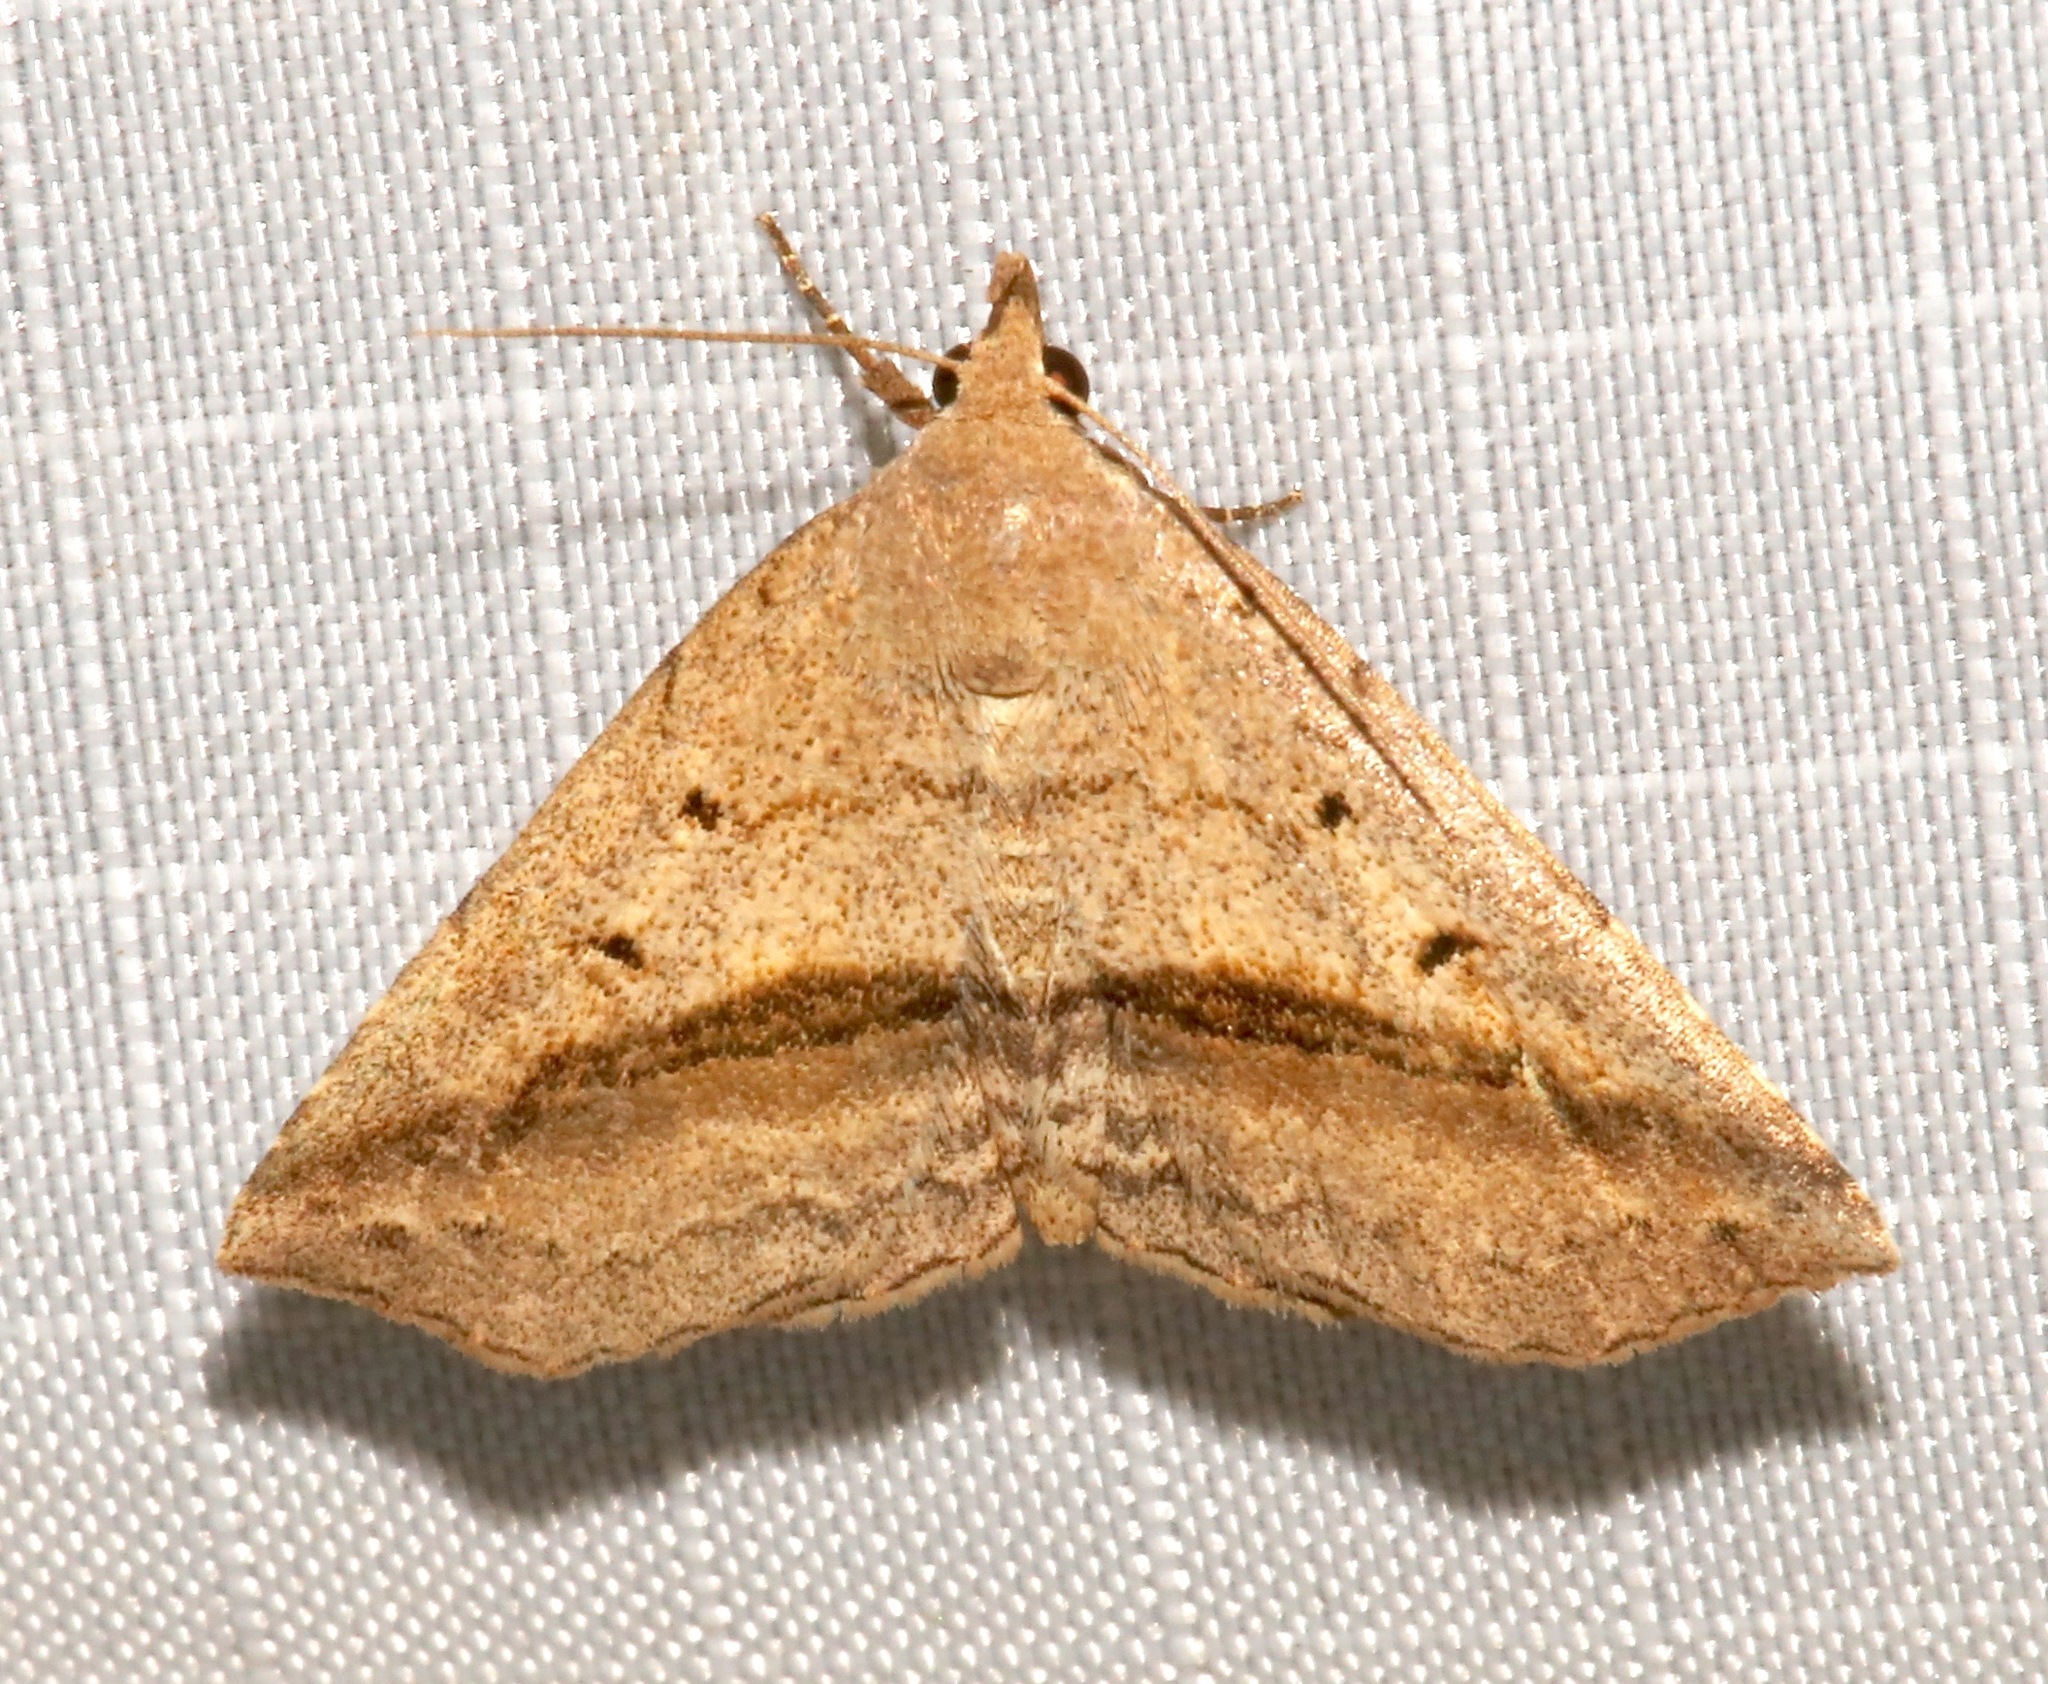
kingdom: Animalia
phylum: Arthropoda
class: Insecta
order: Lepidoptera
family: Erebidae
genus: Spargaloma
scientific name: Spargaloma perditalis
